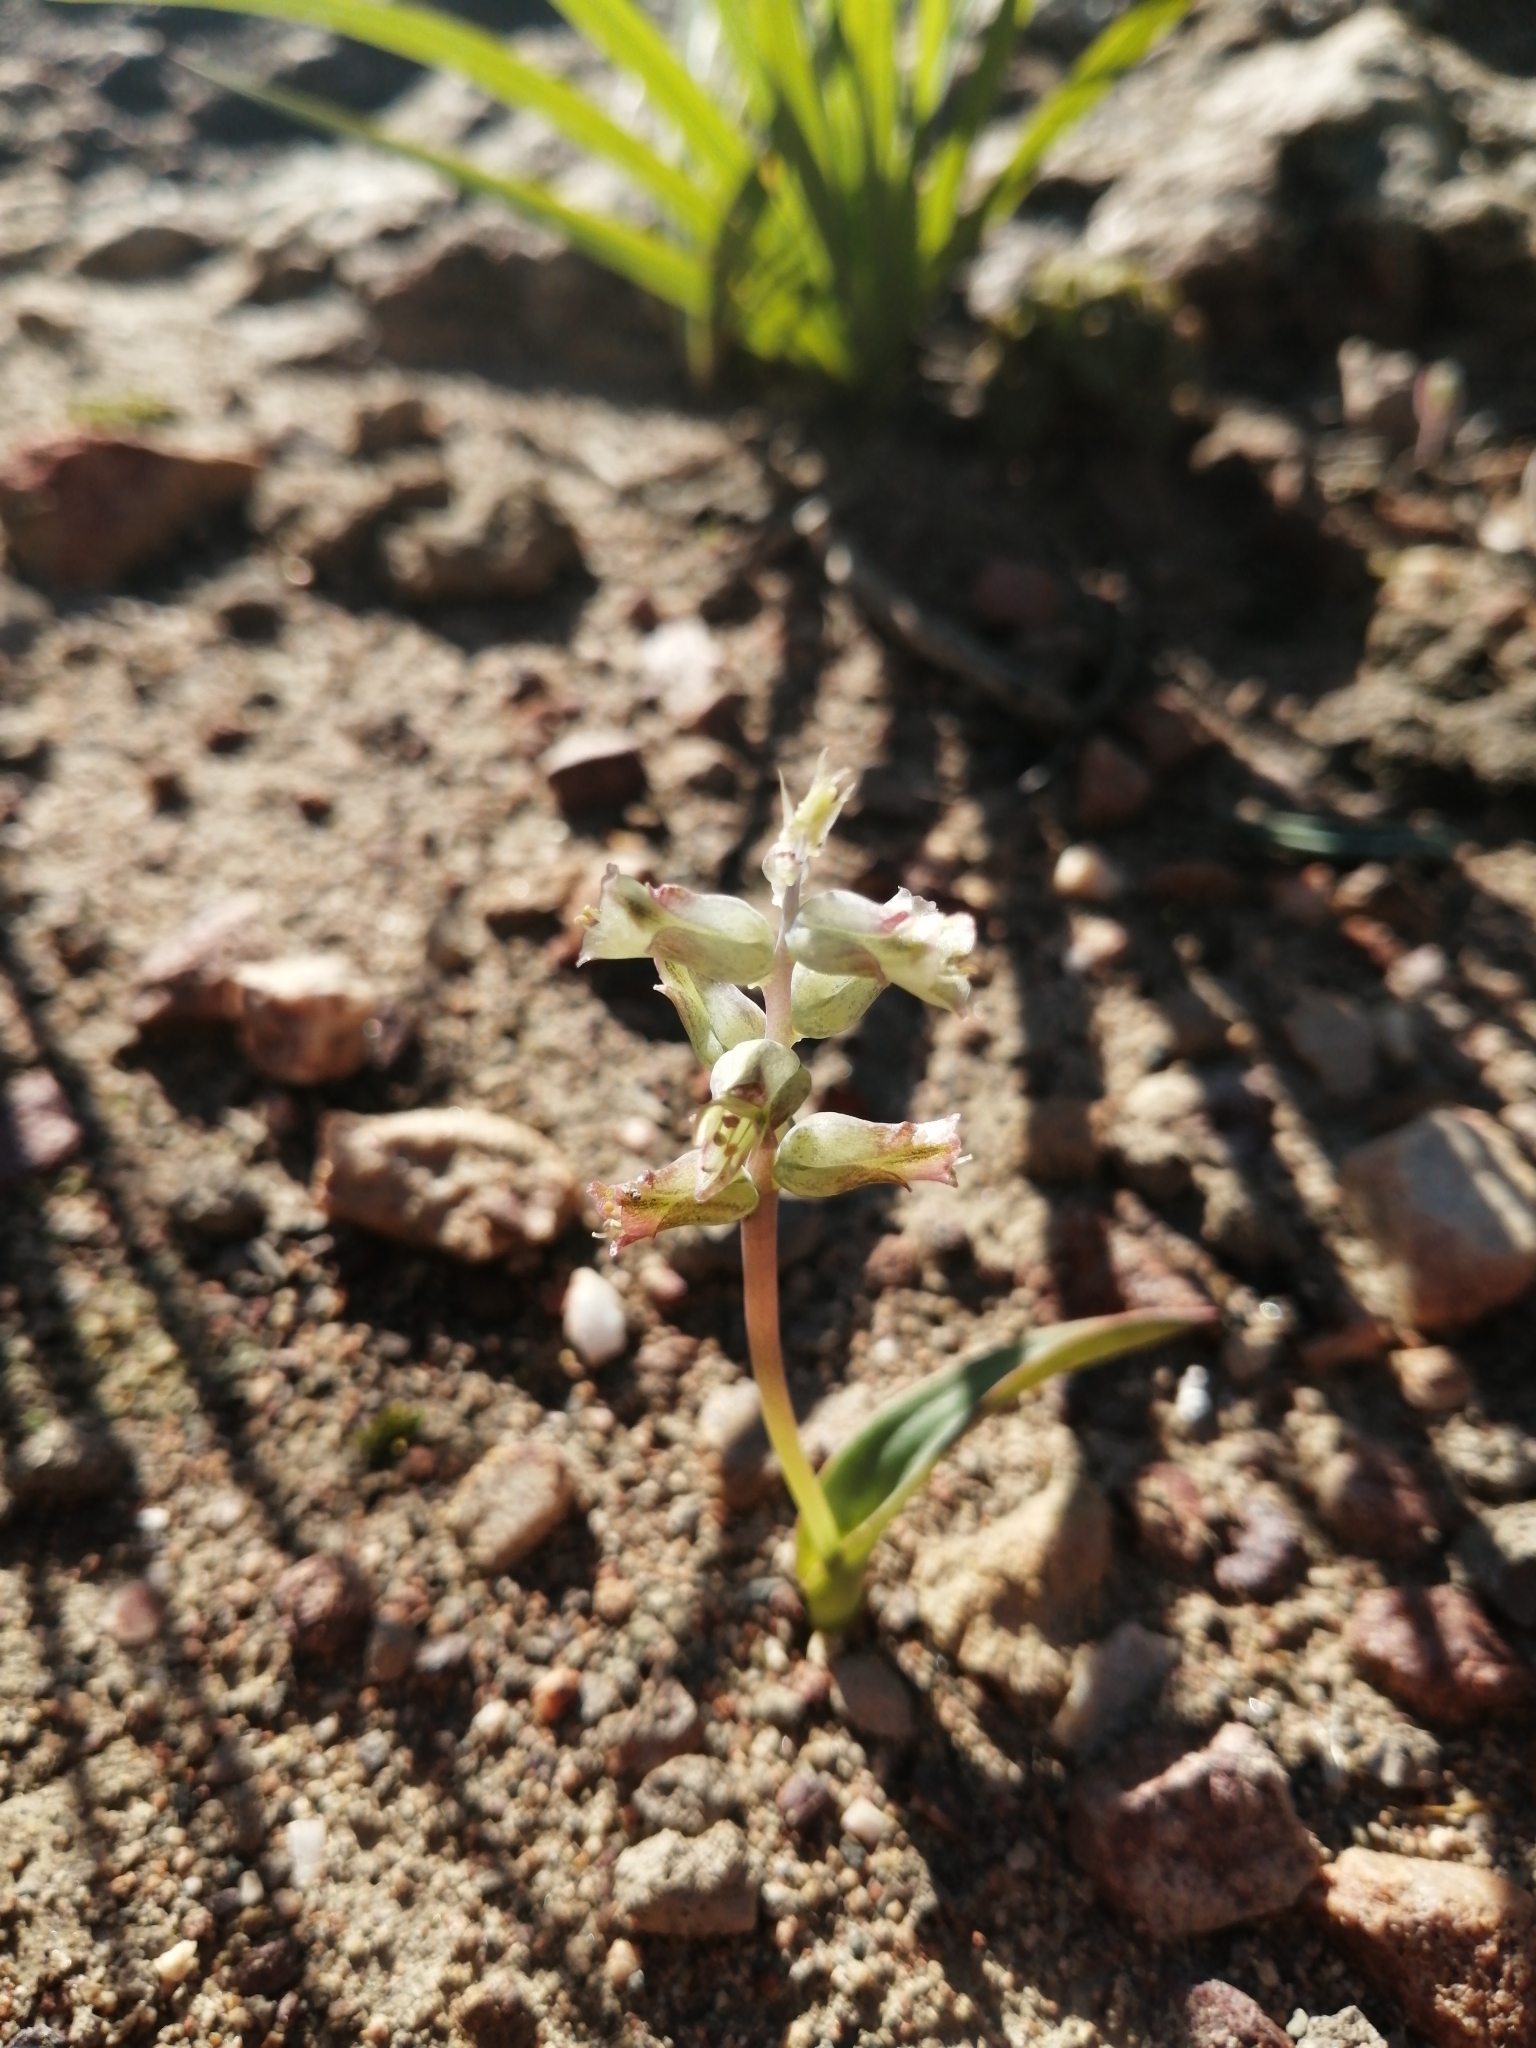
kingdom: Plantae
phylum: Tracheophyta
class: Liliopsida
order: Asparagales
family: Asparagaceae
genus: Lachenalia
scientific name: Lachenalia aurioliae
